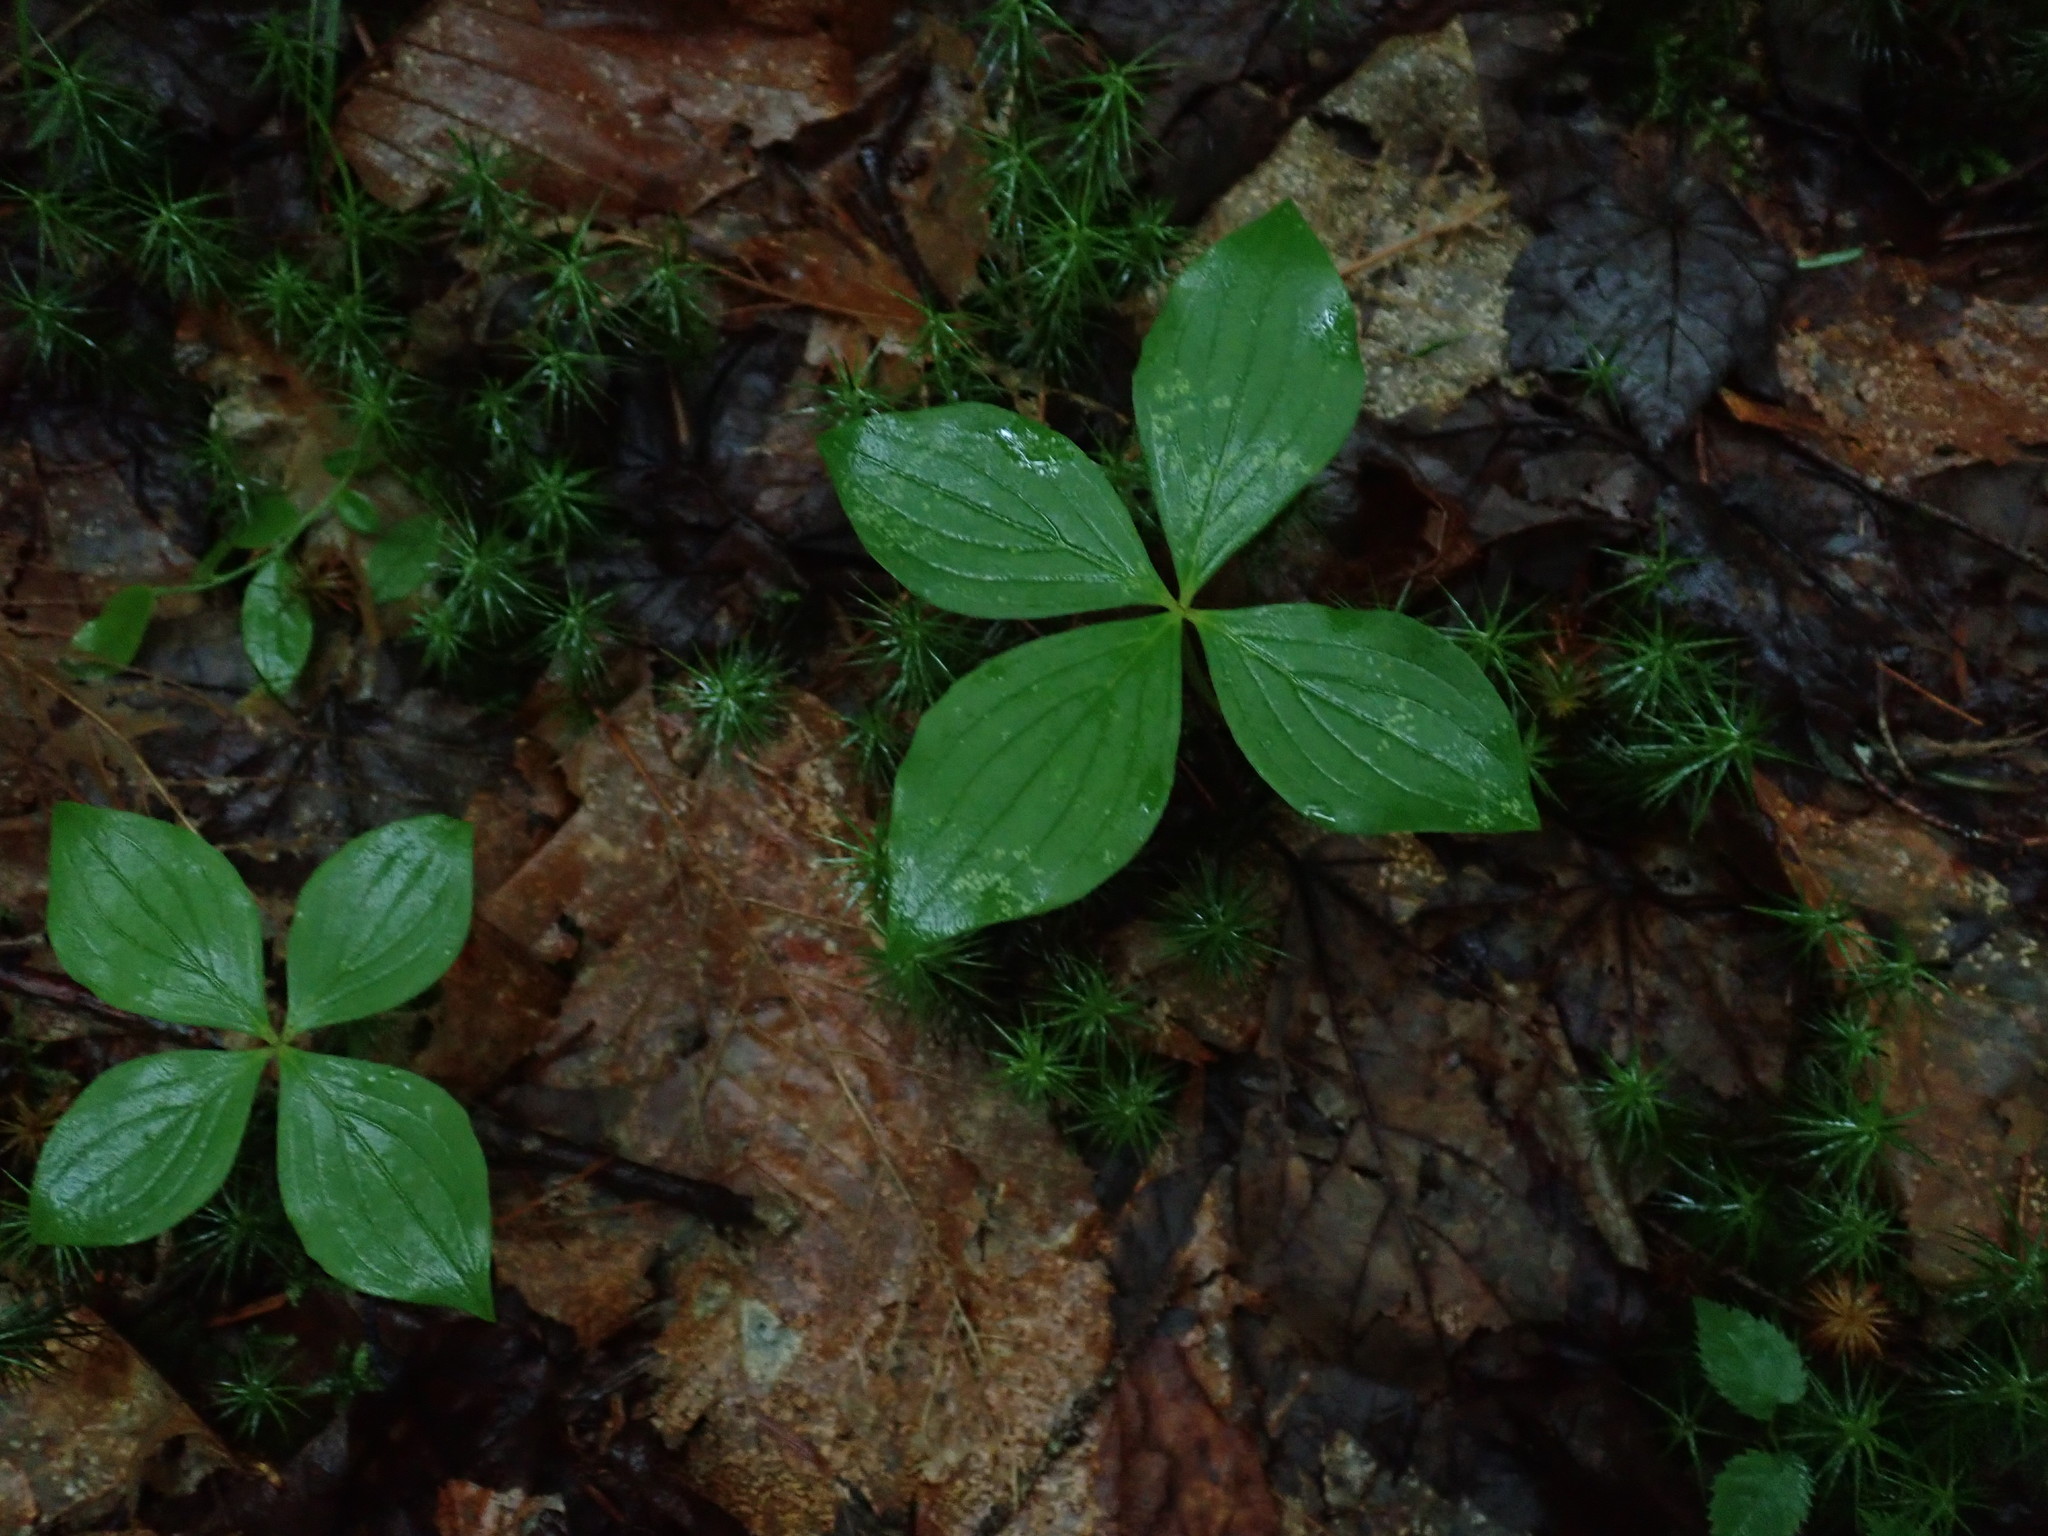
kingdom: Plantae
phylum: Tracheophyta
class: Magnoliopsida
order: Cornales
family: Cornaceae
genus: Cornus
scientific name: Cornus canadensis
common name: Creeping dogwood
